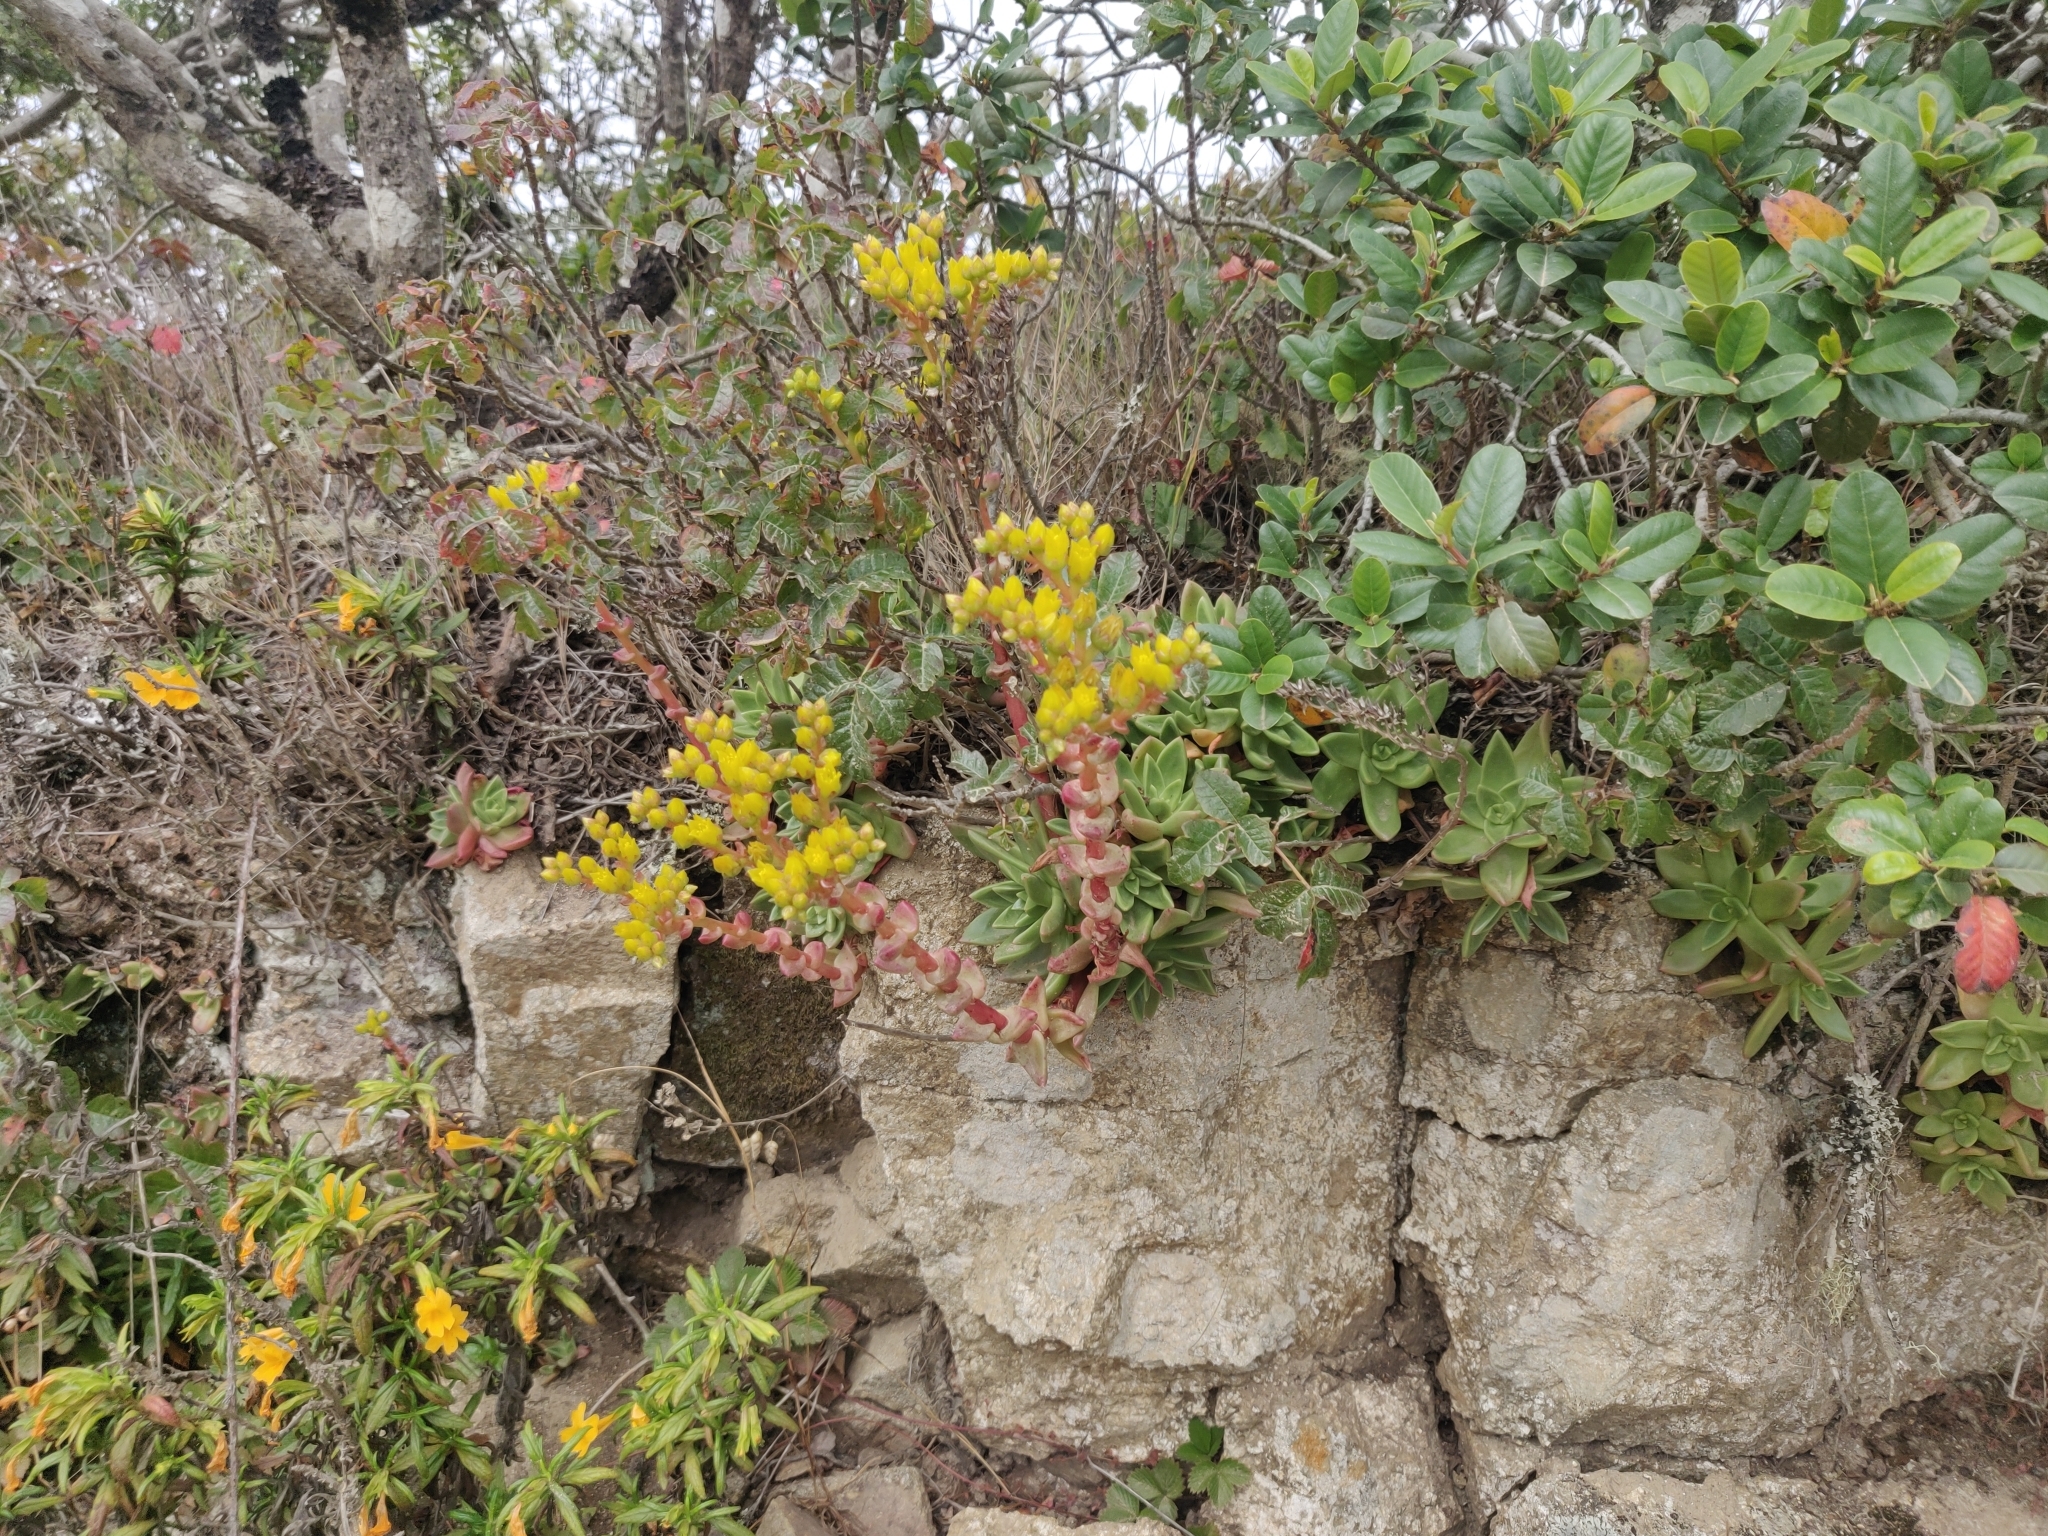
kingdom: Plantae
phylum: Tracheophyta
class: Magnoliopsida
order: Saxifragales
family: Crassulaceae
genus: Dudleya
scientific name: Dudleya caespitosa
